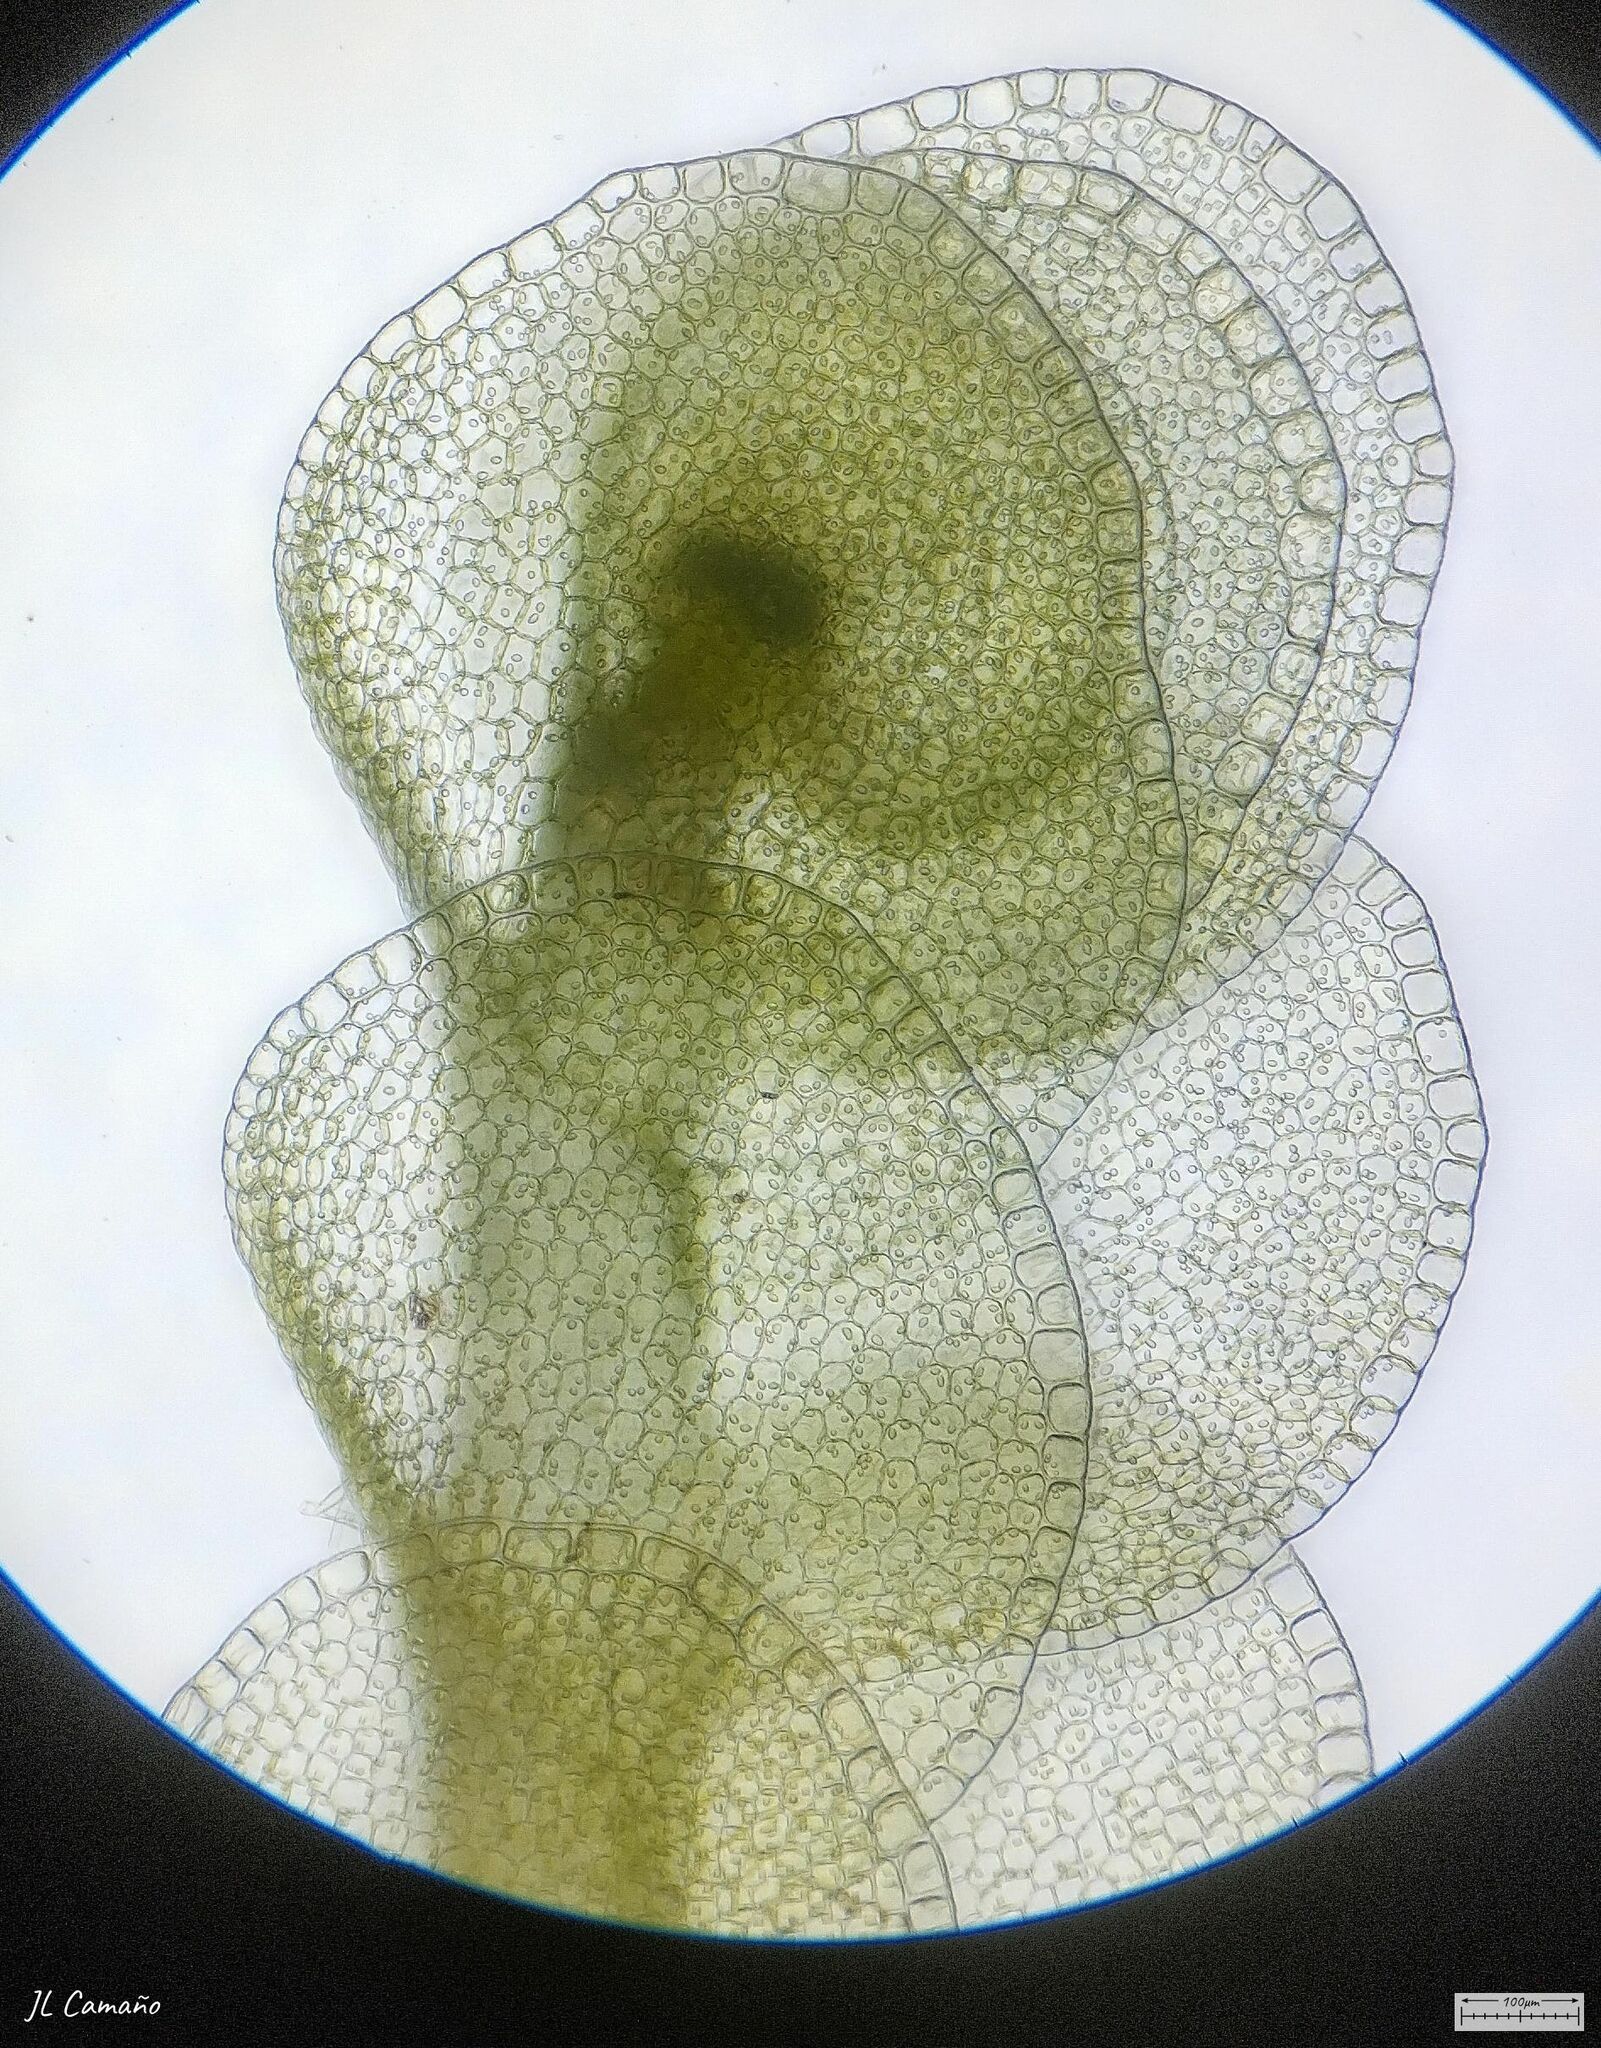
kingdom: Plantae
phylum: Marchantiophyta
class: Jungermanniopsida
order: Jungermanniales
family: Solenostomataceae
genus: Solenostoma
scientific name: Solenostoma gracillimum
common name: Crenulated flapwort
